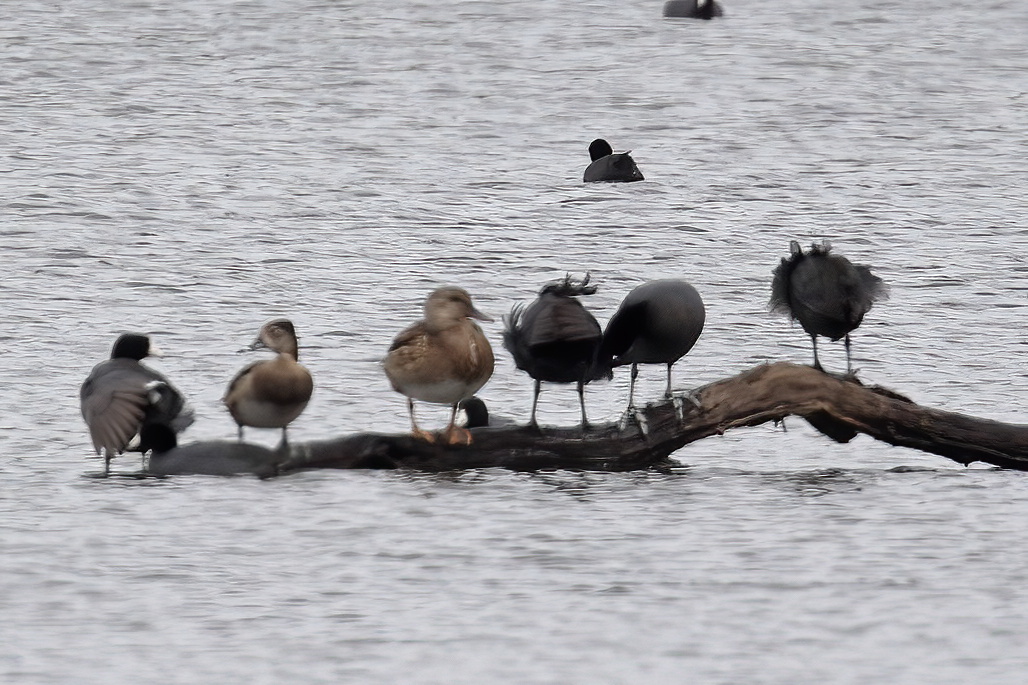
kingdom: Animalia
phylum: Chordata
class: Aves
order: Anseriformes
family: Anatidae
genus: Mareca
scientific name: Mareca strepera
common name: Gadwall
